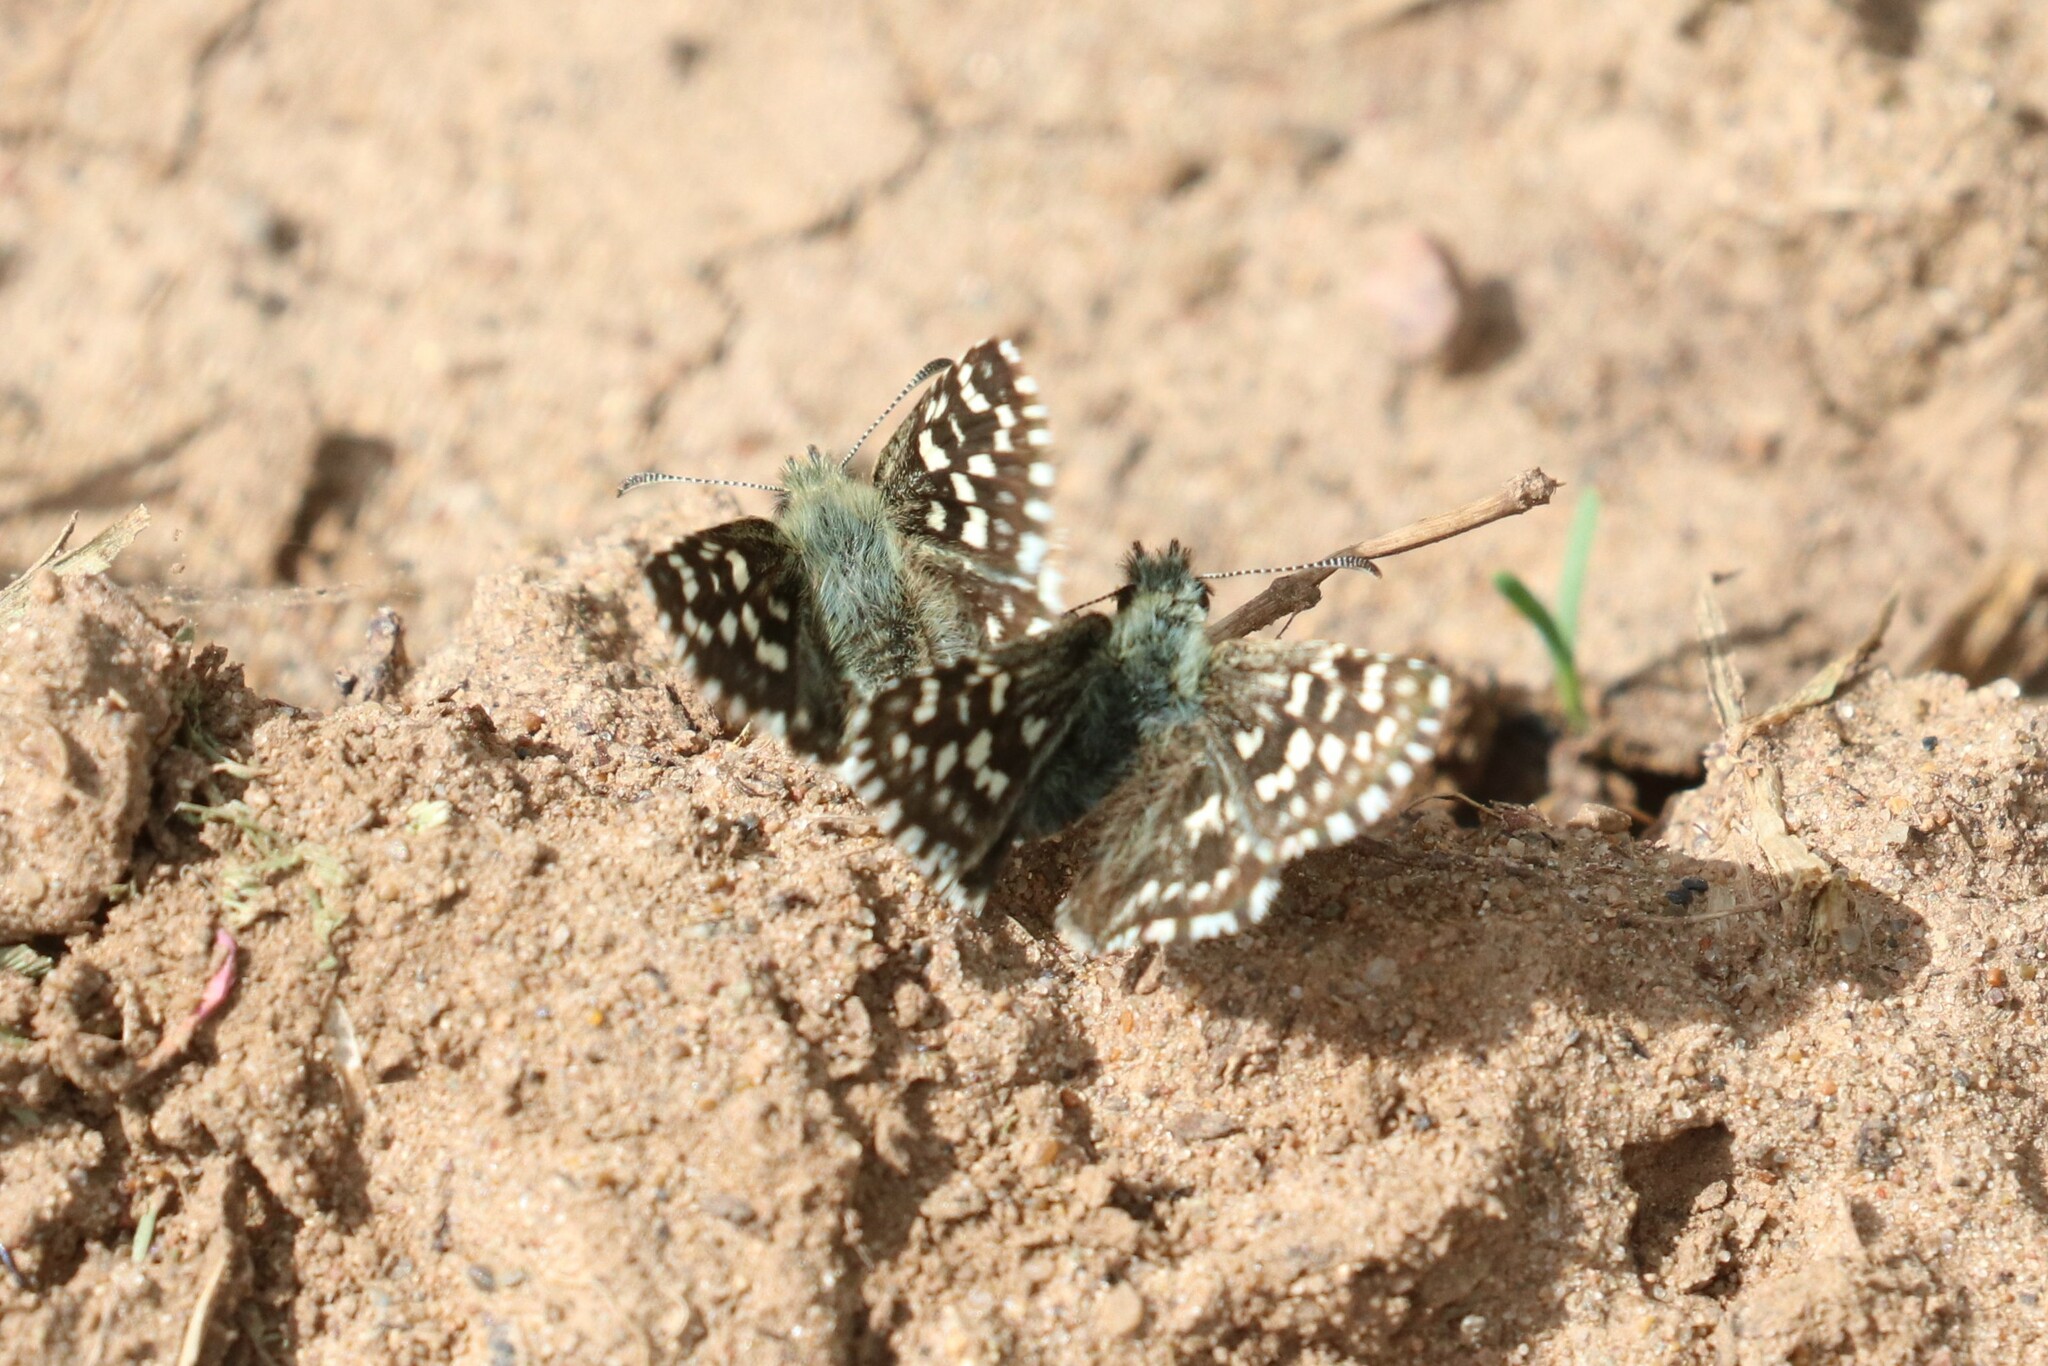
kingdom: Animalia
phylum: Arthropoda
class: Insecta
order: Lepidoptera
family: Hesperiidae
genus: Pyrgus
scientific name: Pyrgus malvae
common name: Grizzled skipper
